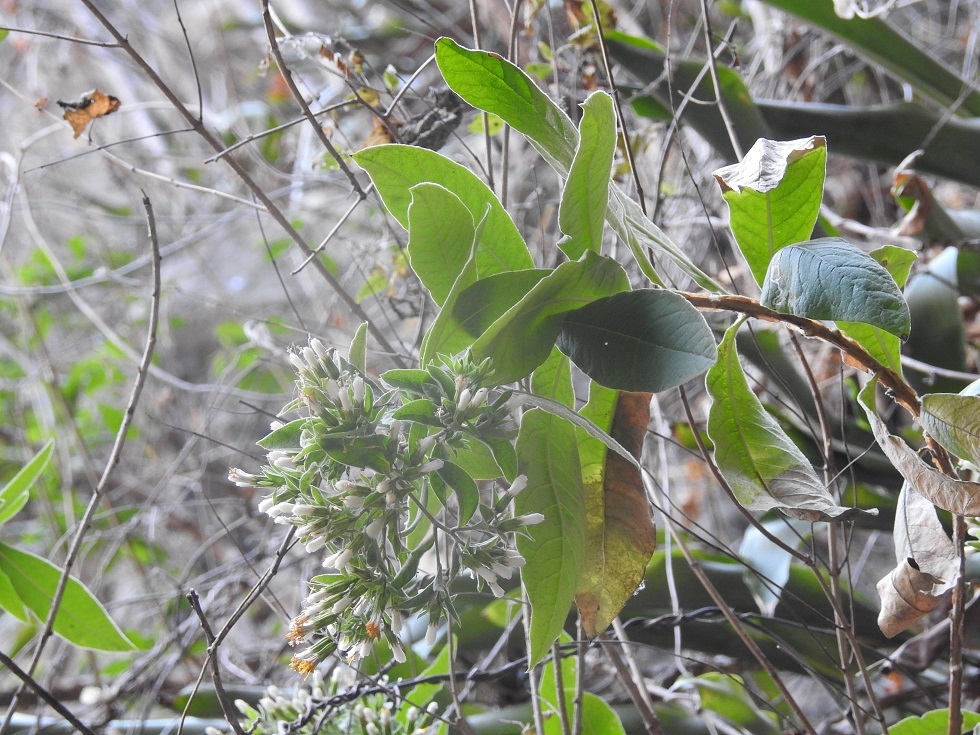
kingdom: Plantae
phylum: Tracheophyta
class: Magnoliopsida
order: Asterales
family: Asteraceae
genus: Trixis
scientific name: Trixis anomala
